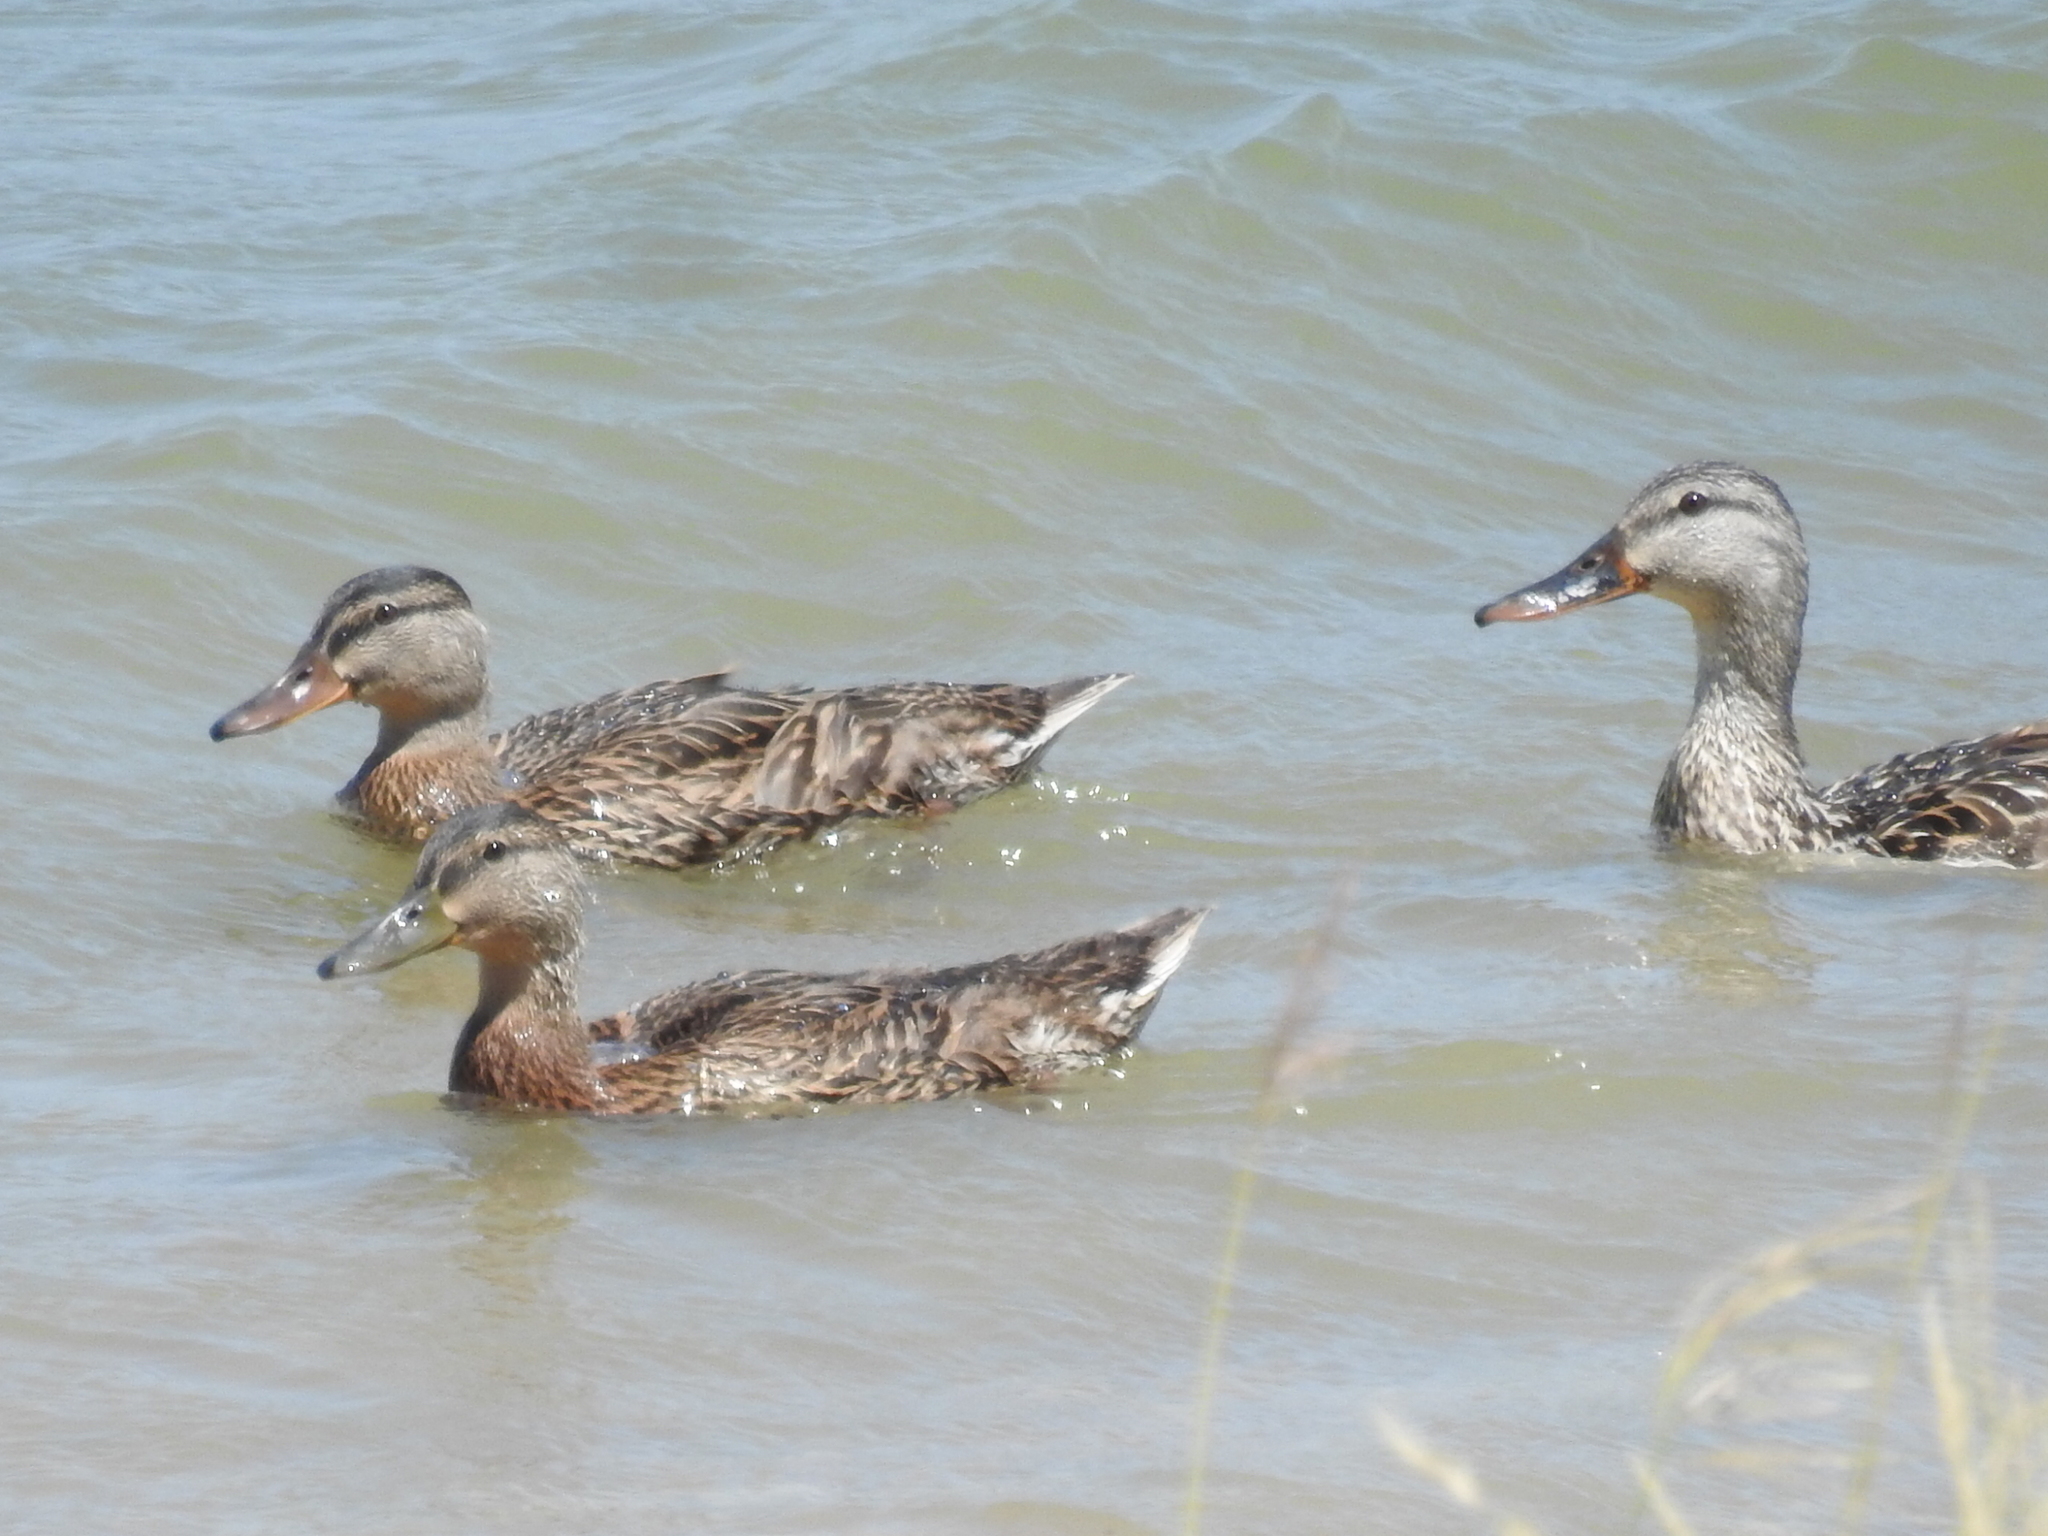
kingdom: Animalia
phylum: Chordata
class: Aves
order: Anseriformes
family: Anatidae
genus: Anas
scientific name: Anas platyrhynchos
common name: Mallard
